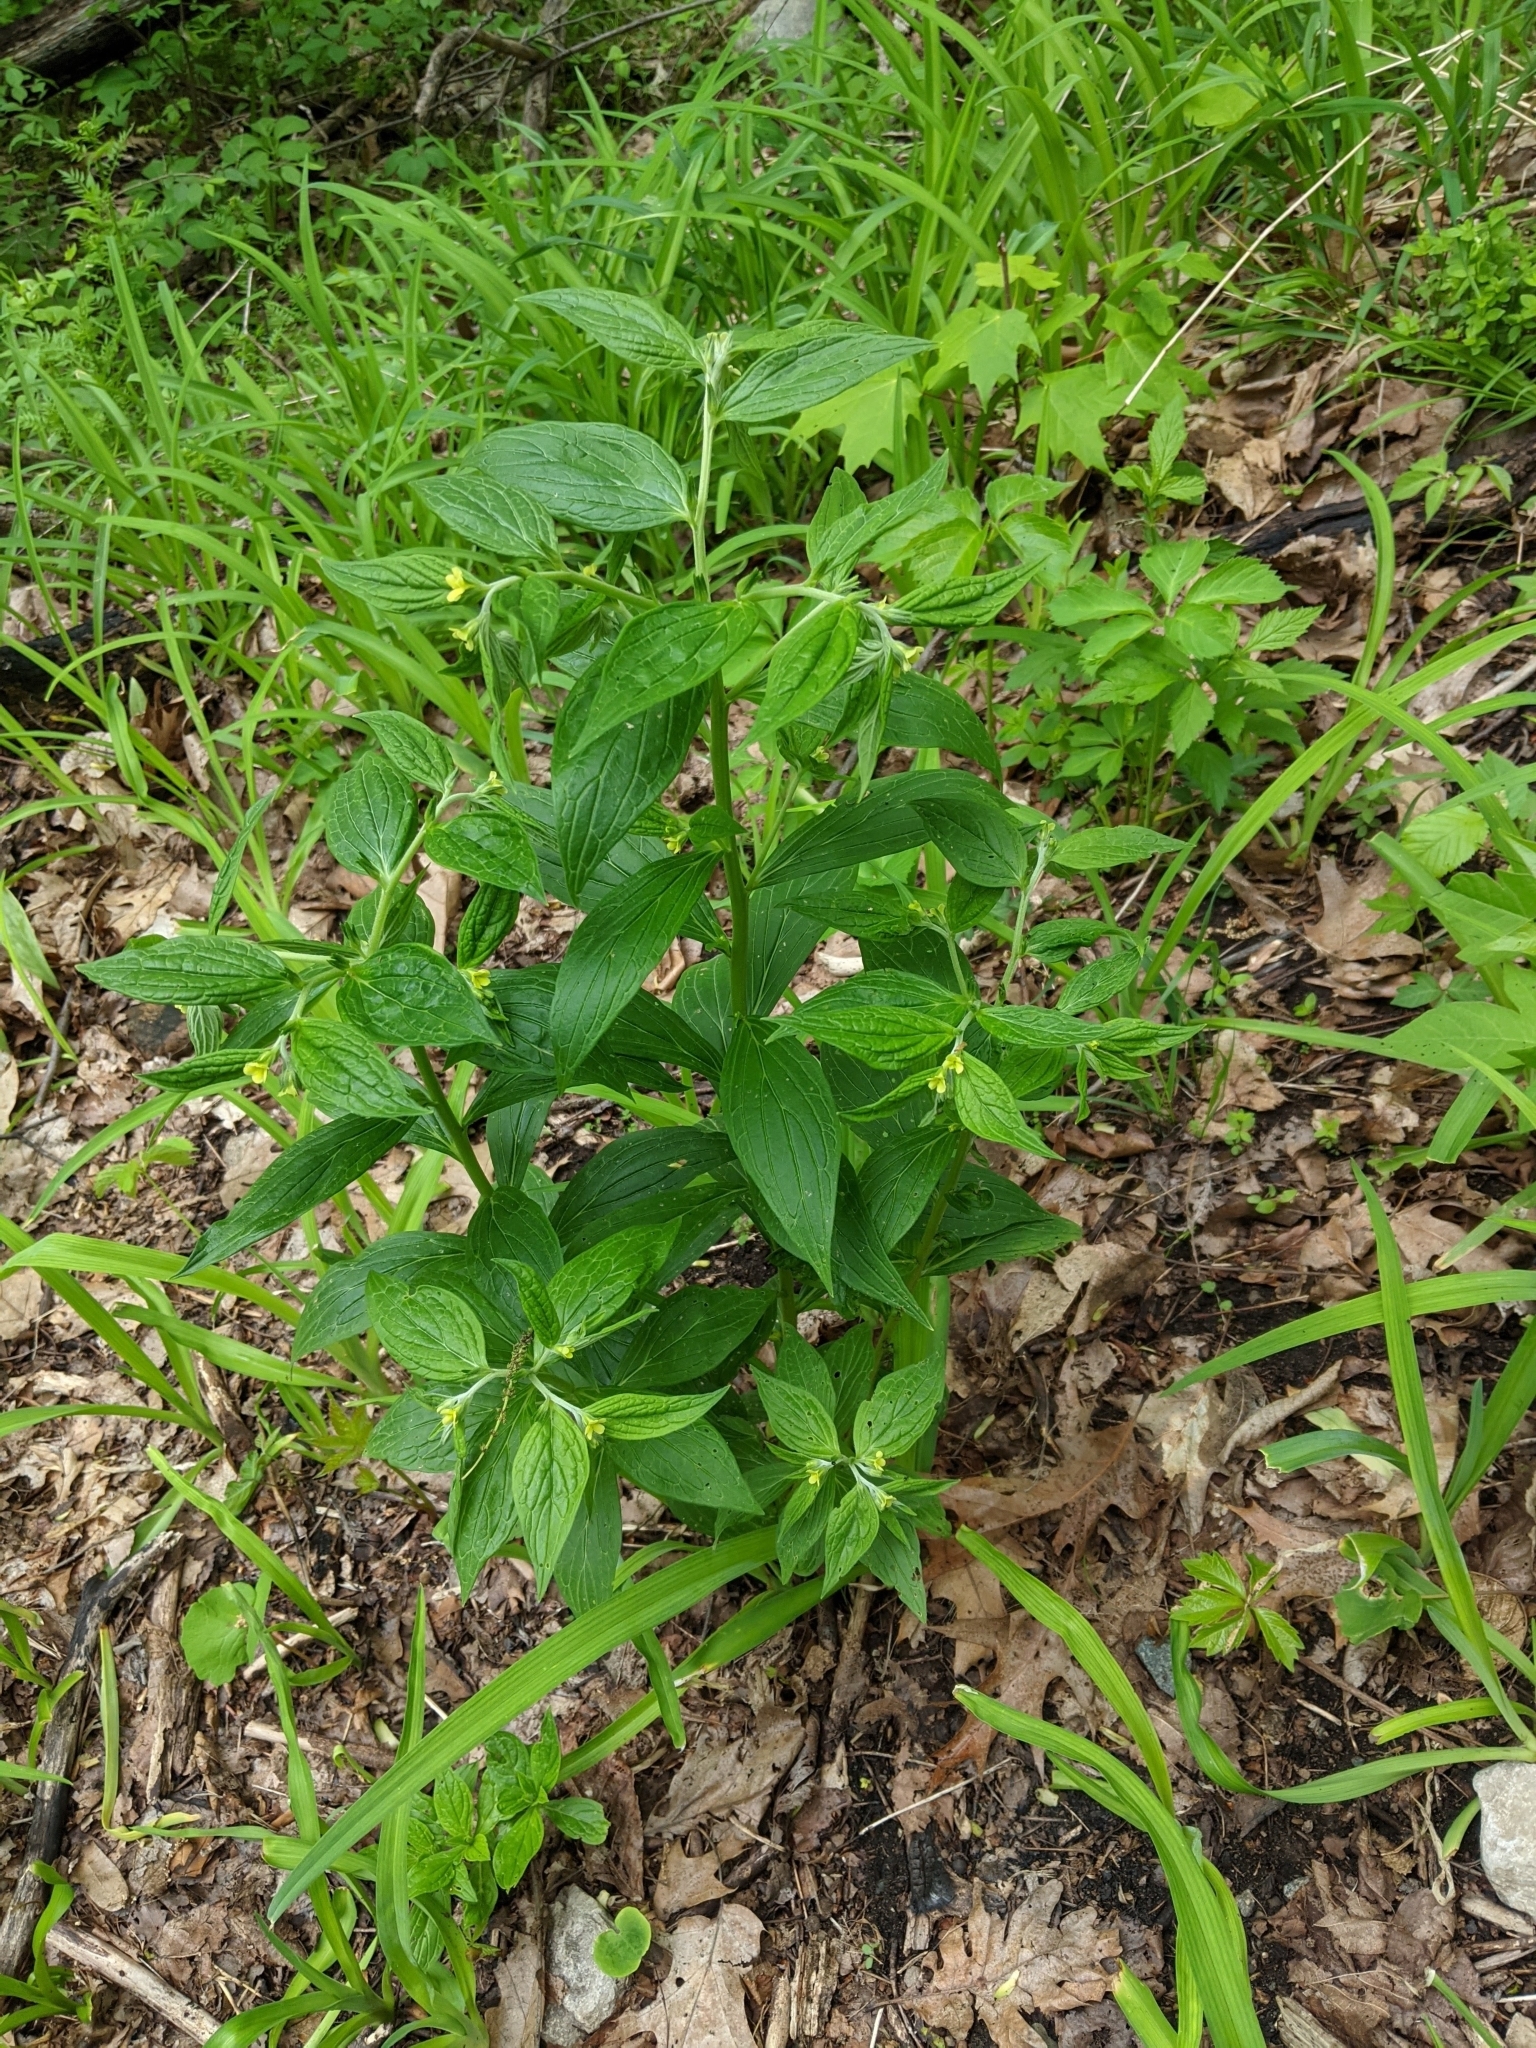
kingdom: Plantae
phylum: Tracheophyta
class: Magnoliopsida
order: Boraginales
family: Boraginaceae
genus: Hackelia
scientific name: Hackelia virginiana
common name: Beggar's-lice
